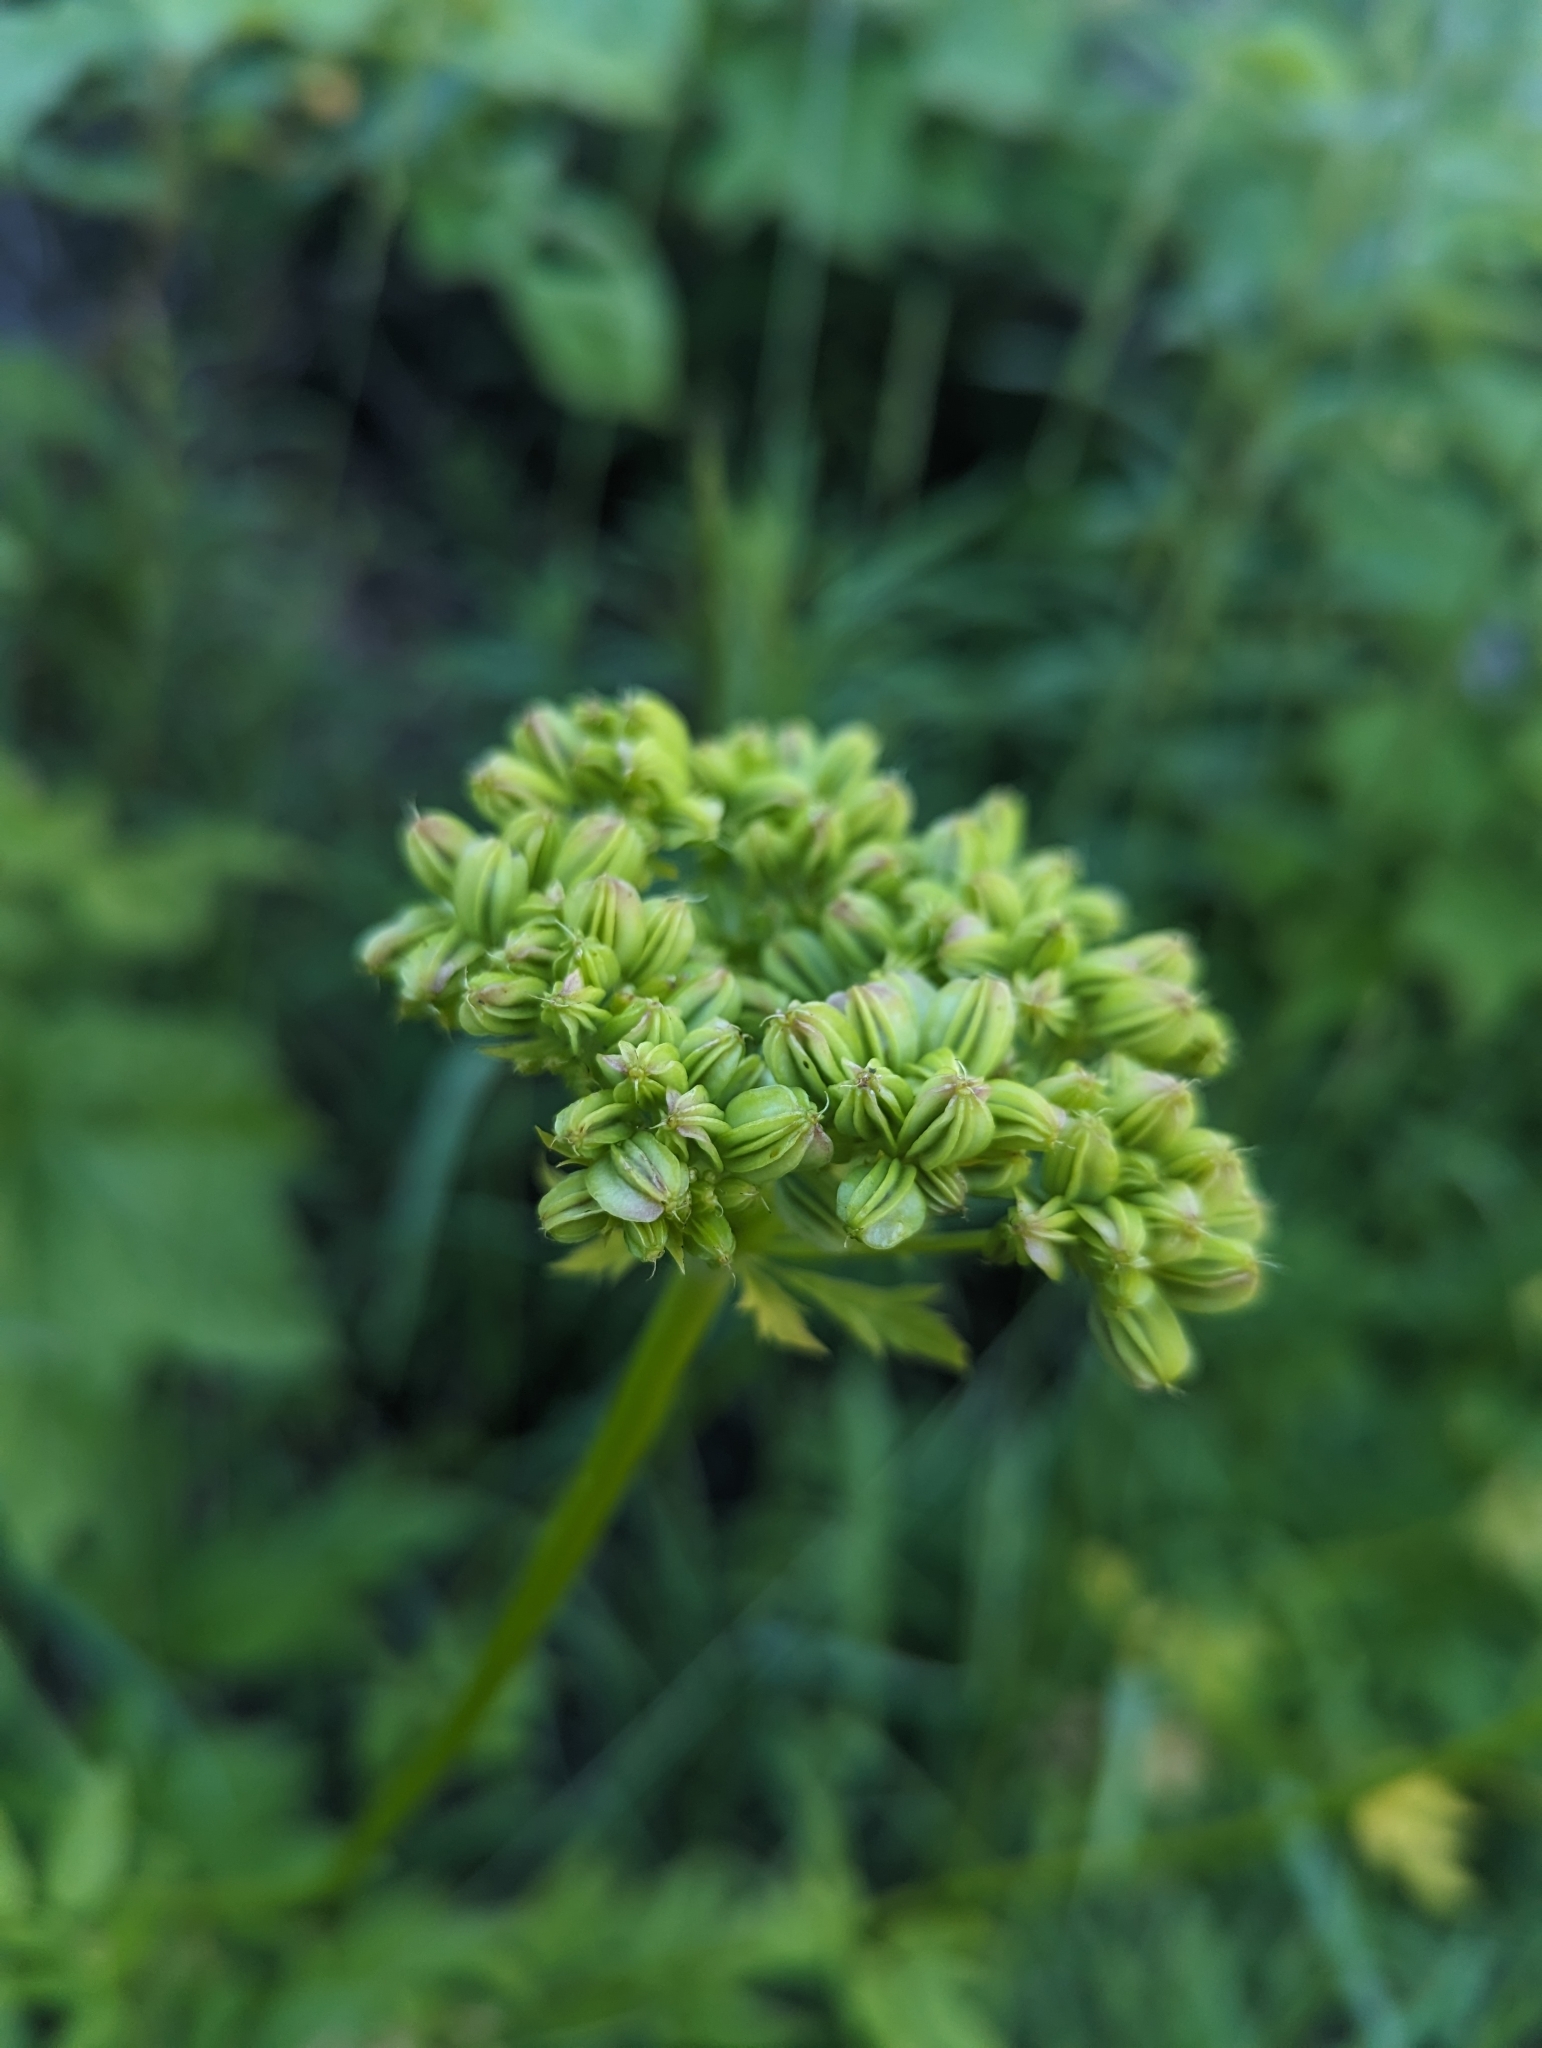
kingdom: Plantae
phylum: Tracheophyta
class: Magnoliopsida
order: Apiales
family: Apiaceae
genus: Angelica
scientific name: Angelica dawsonii
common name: Dawson's angelica
